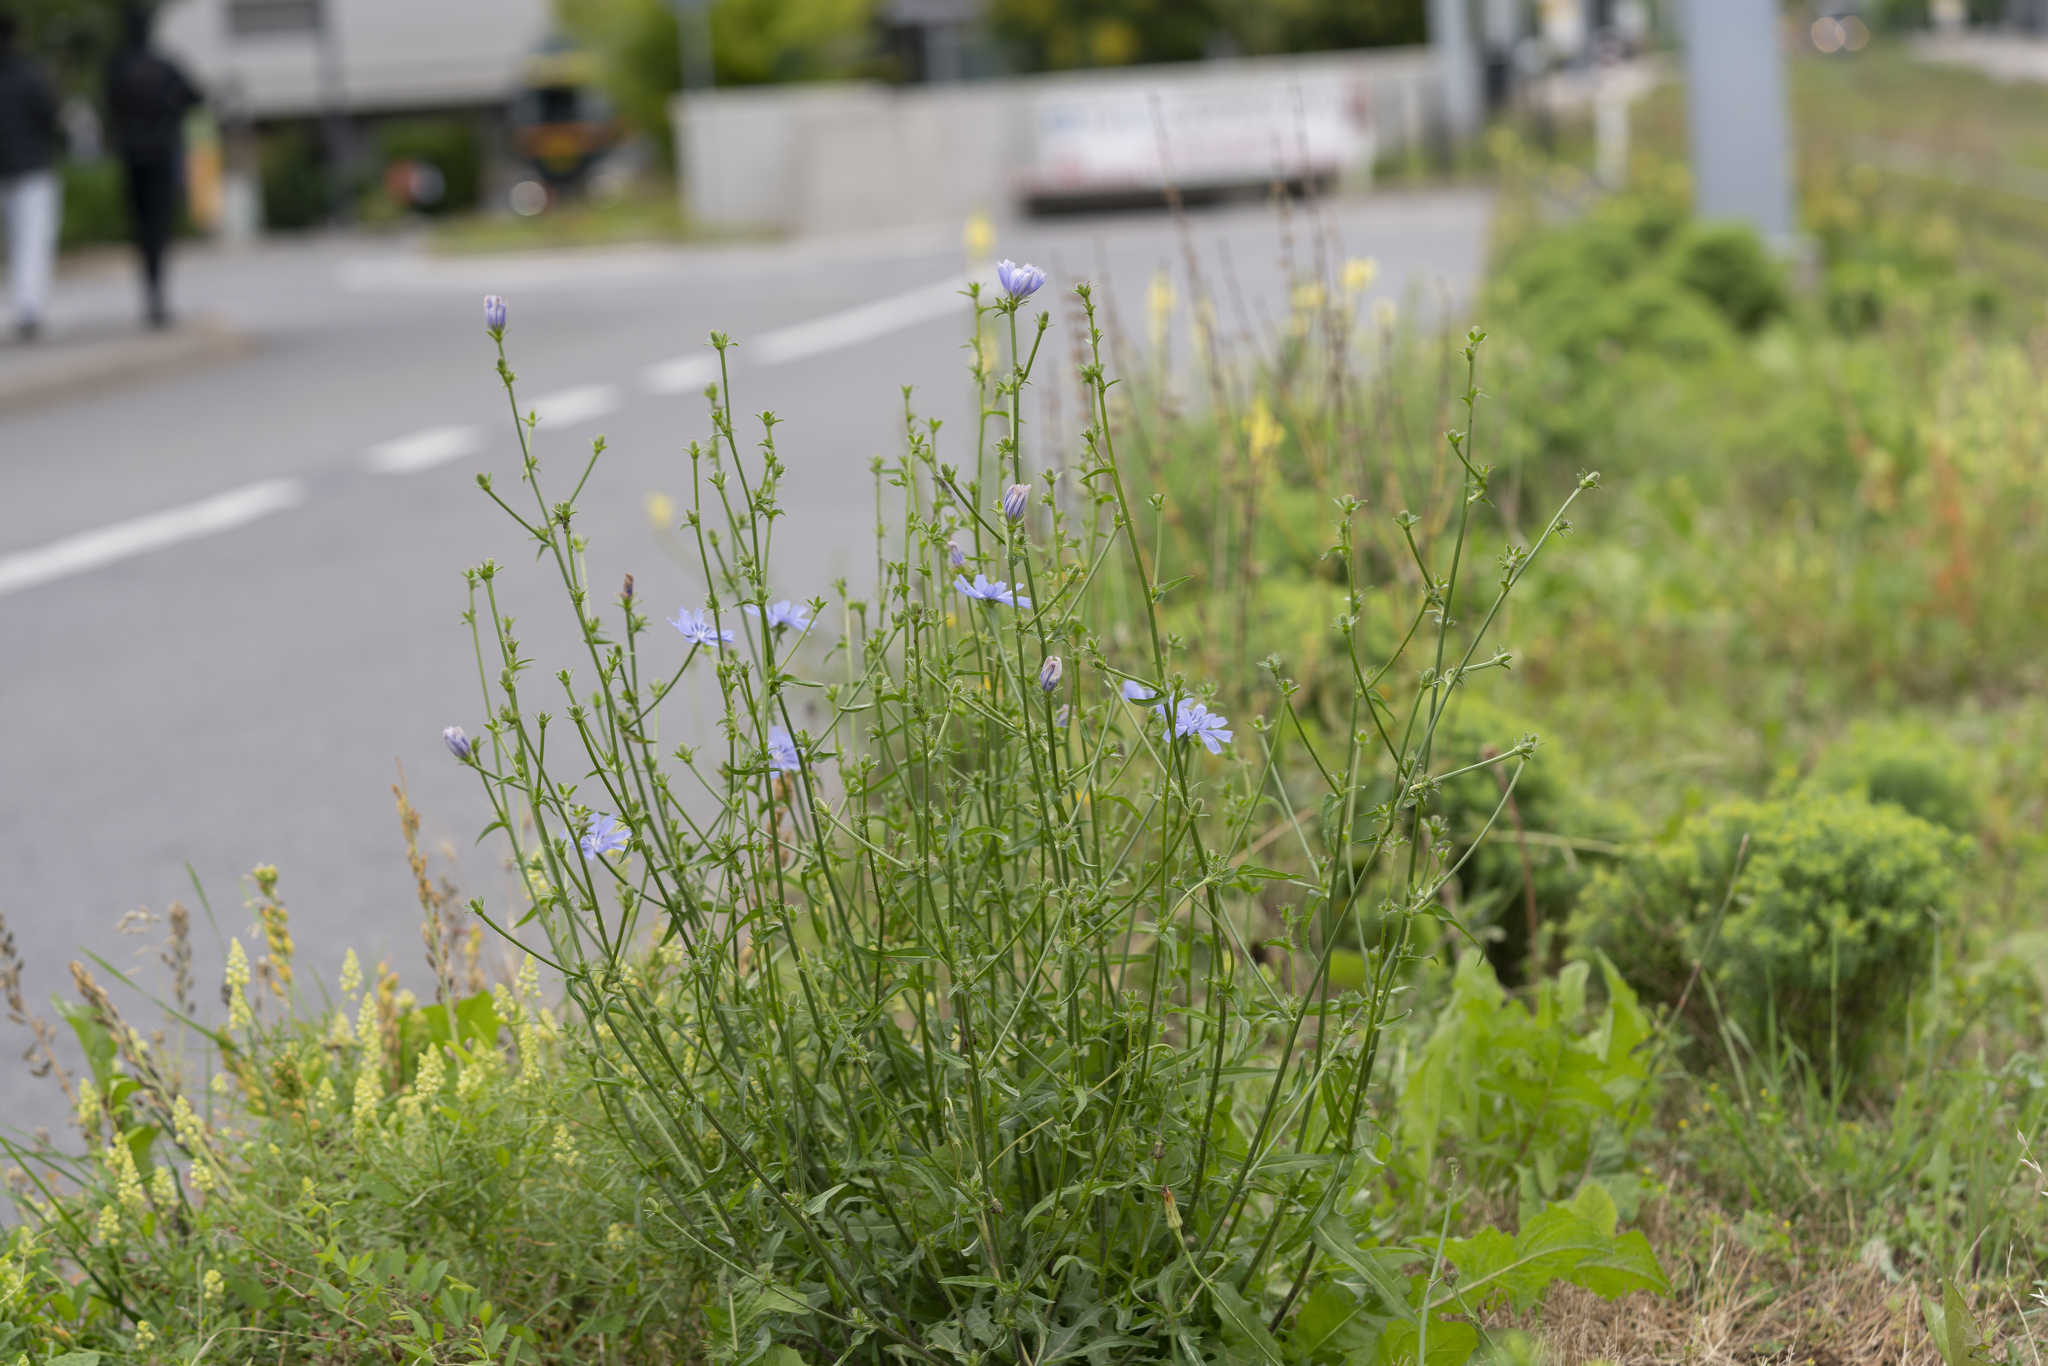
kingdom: Plantae
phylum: Tracheophyta
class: Magnoliopsida
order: Asterales
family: Asteraceae
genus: Cichorium
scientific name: Cichorium intybus
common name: Chicory
